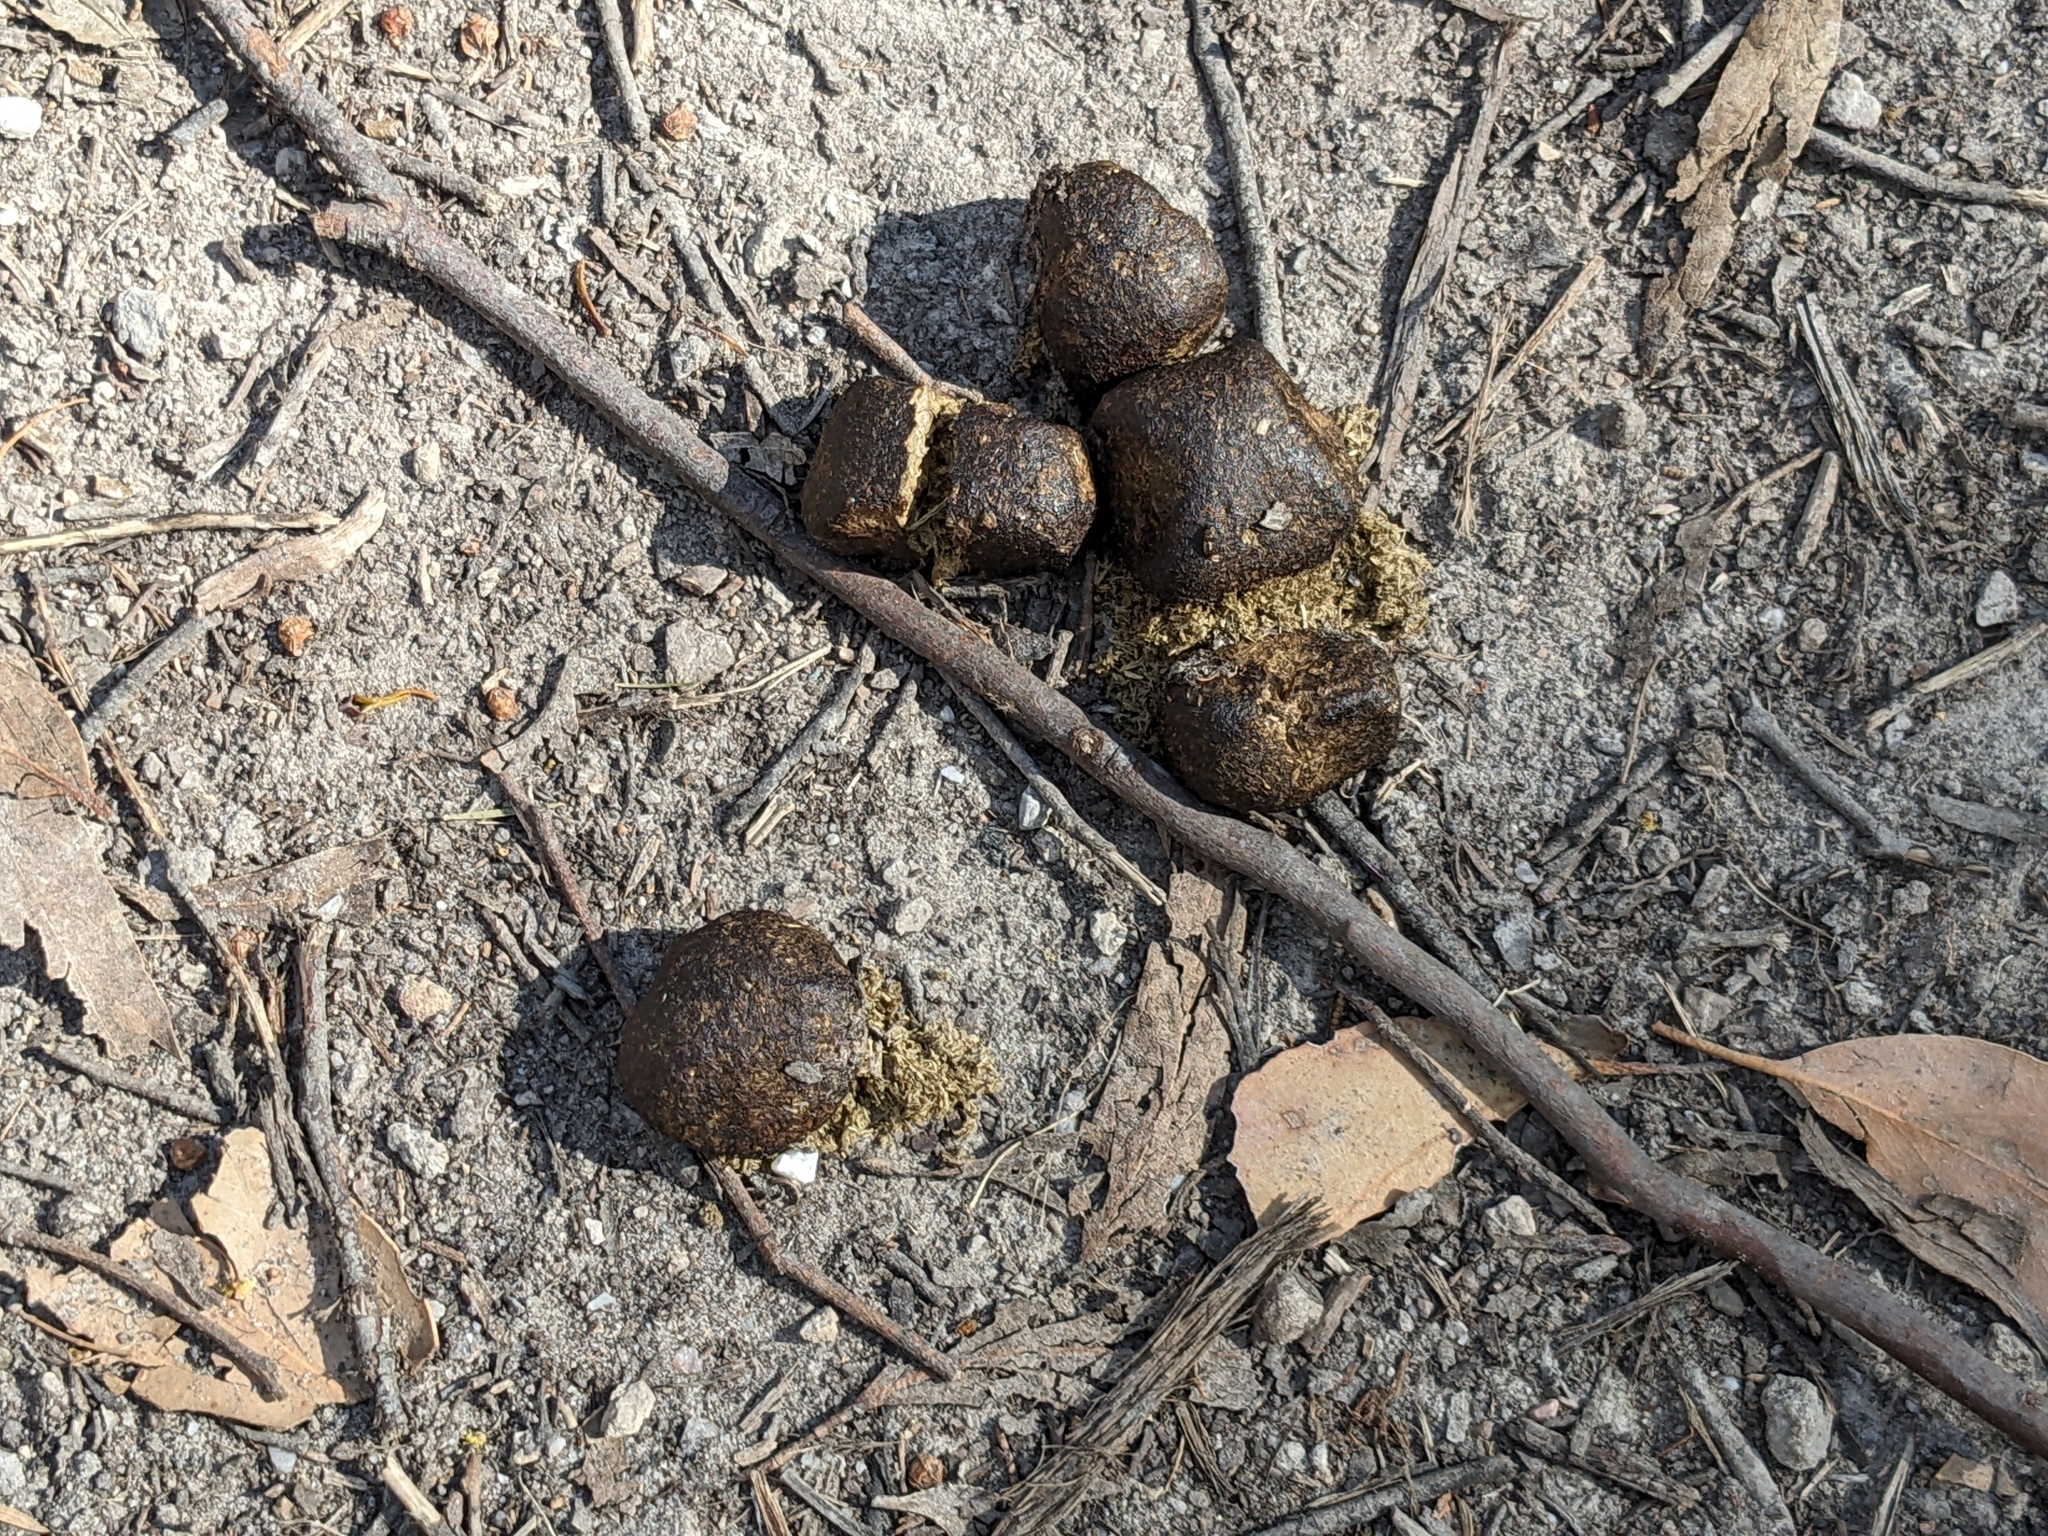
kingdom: Animalia
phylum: Chordata
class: Mammalia
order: Diprotodontia
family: Vombatidae
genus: Vombatus
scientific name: Vombatus ursinus
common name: Common wombat
